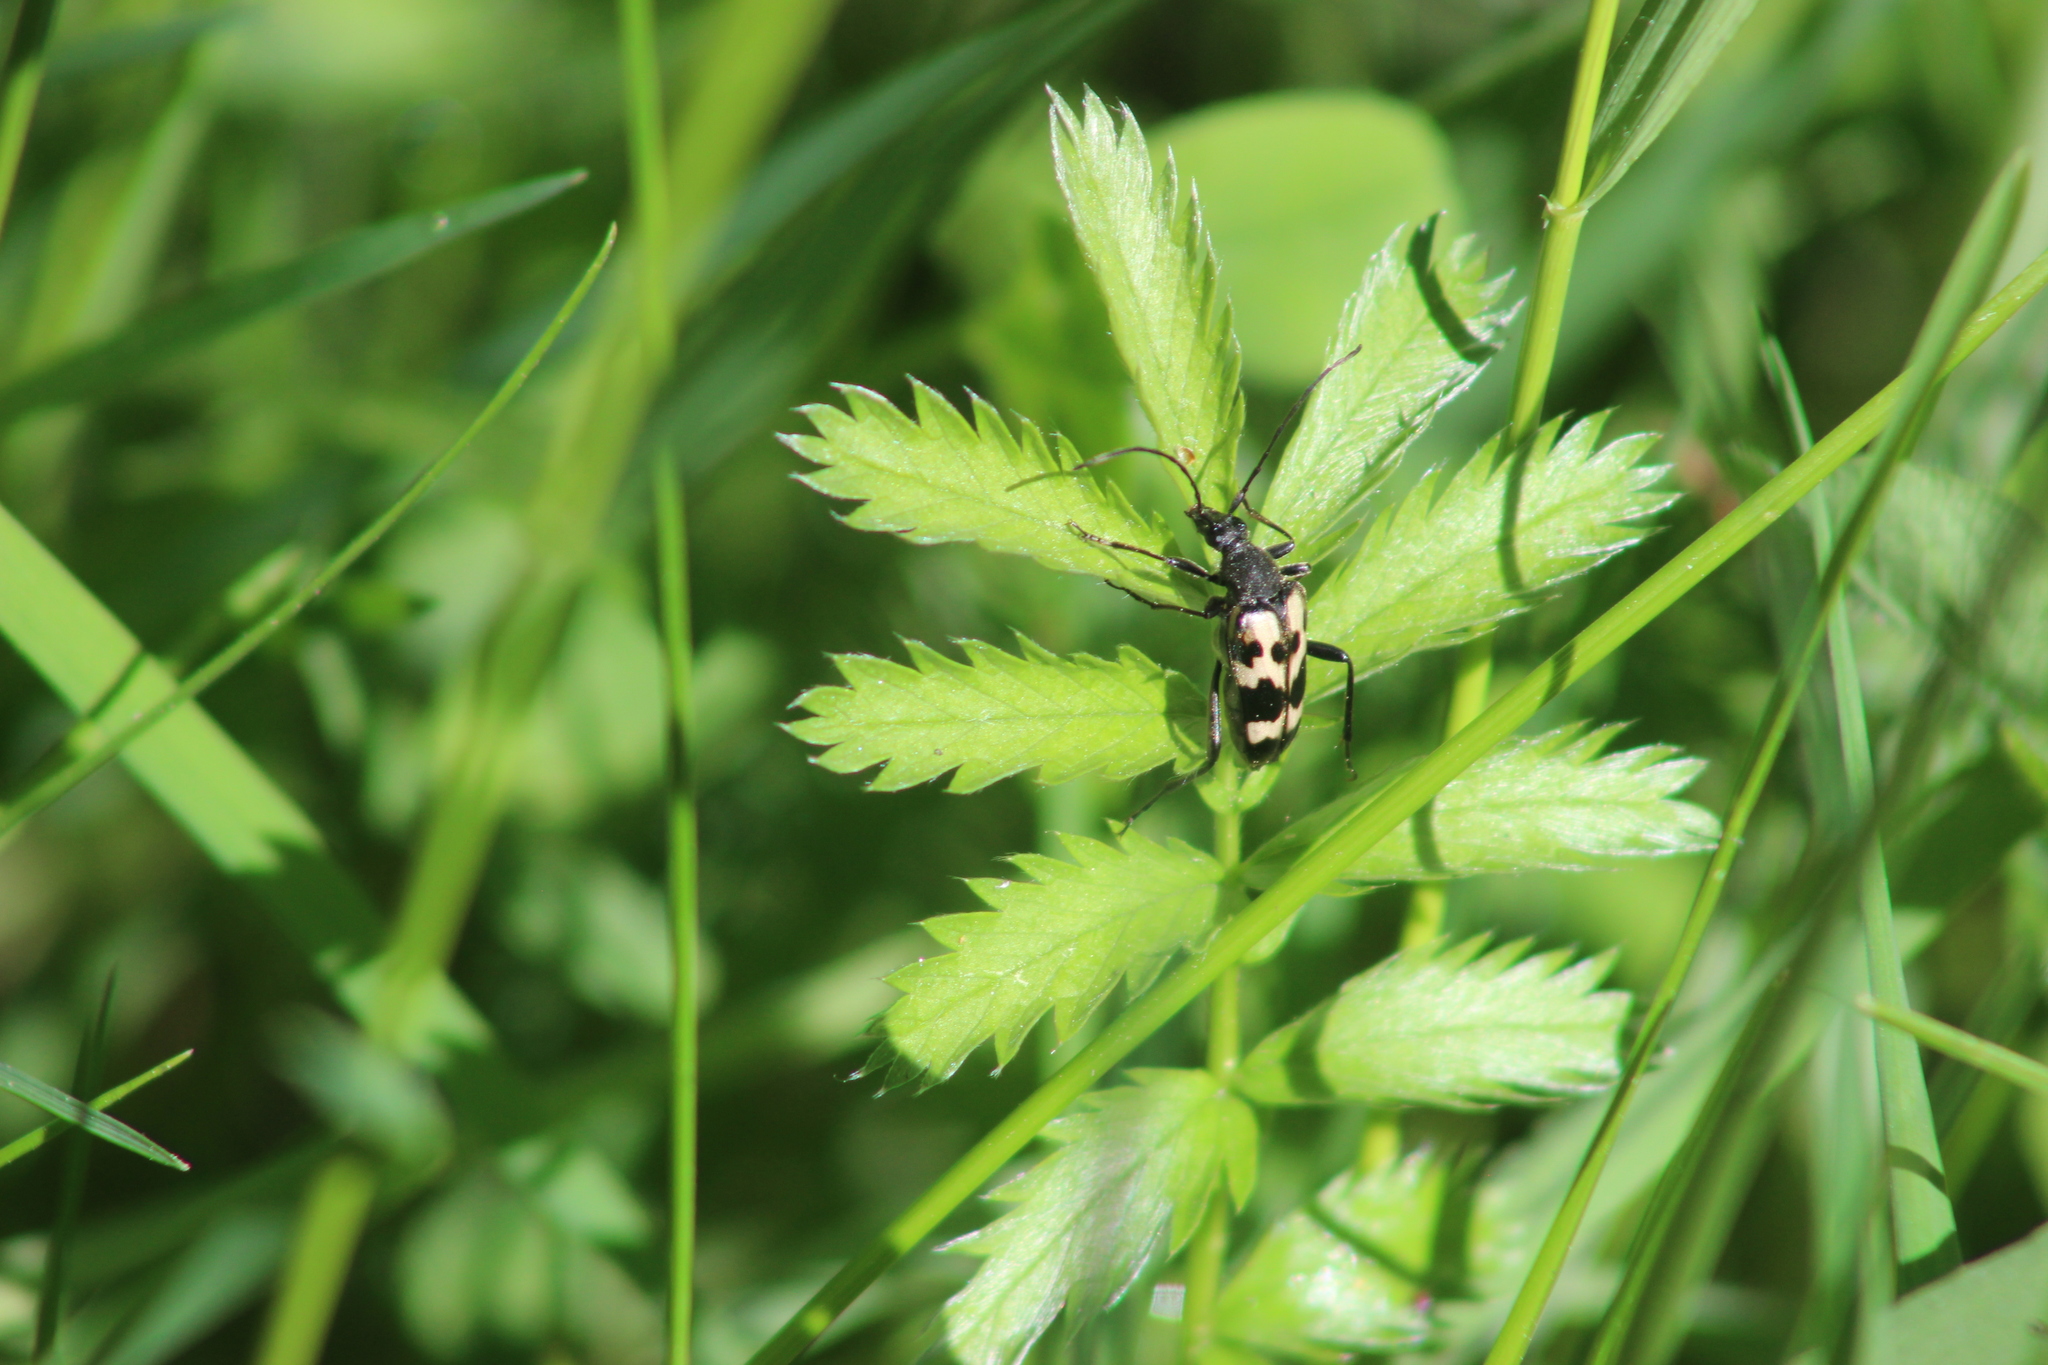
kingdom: Animalia
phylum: Arthropoda
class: Insecta
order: Coleoptera
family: Cerambycidae
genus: Judolia
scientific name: Judolia sexmaculata
